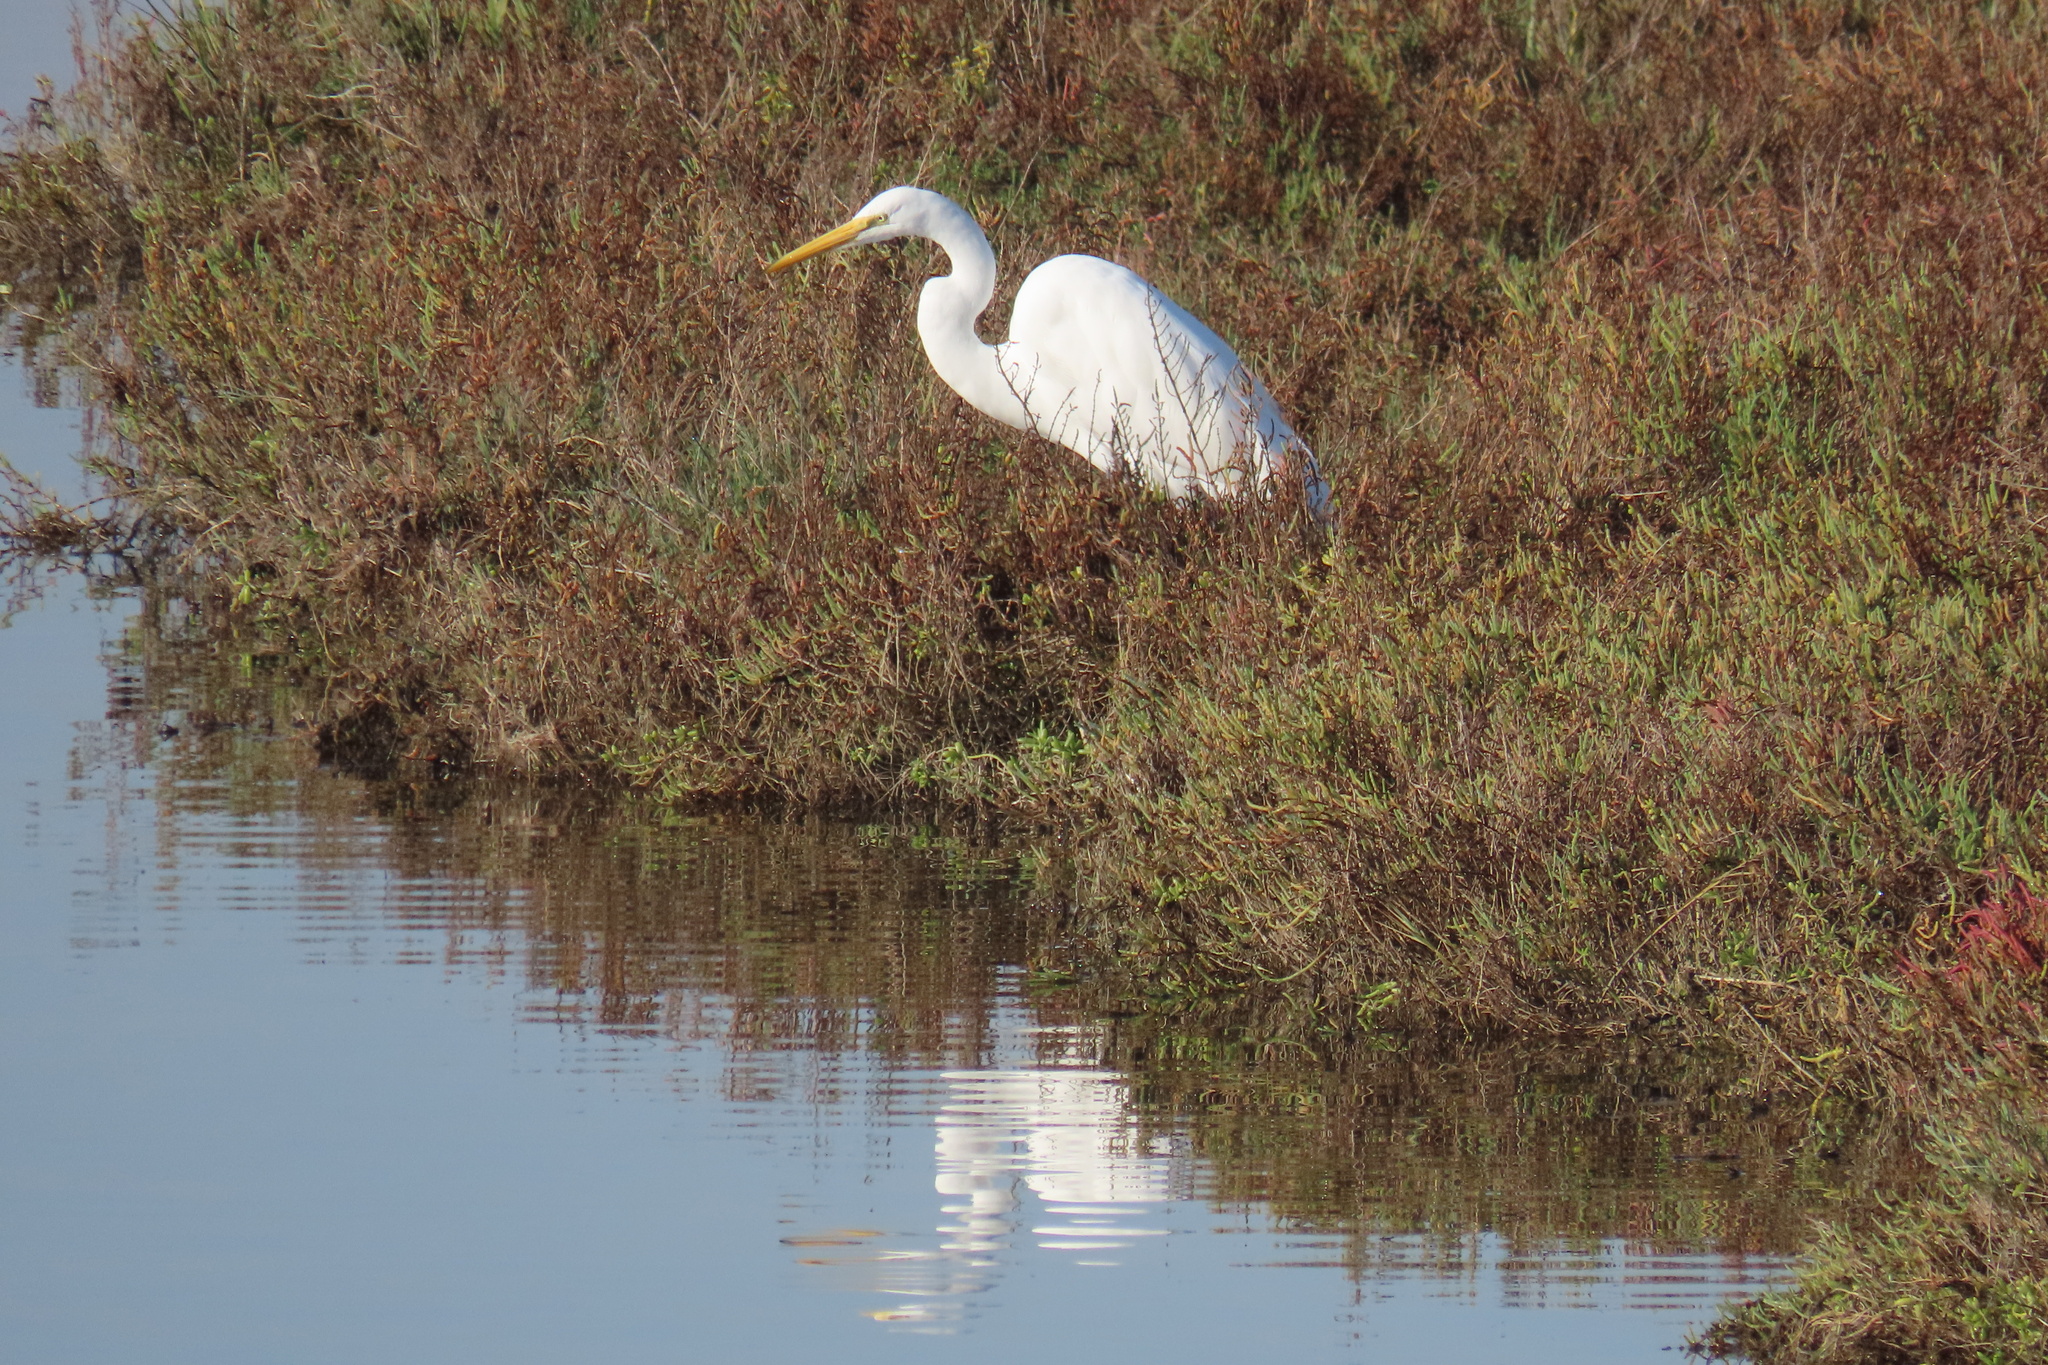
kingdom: Animalia
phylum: Chordata
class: Aves
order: Pelecaniformes
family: Ardeidae
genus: Ardea
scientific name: Ardea alba
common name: Great egret
